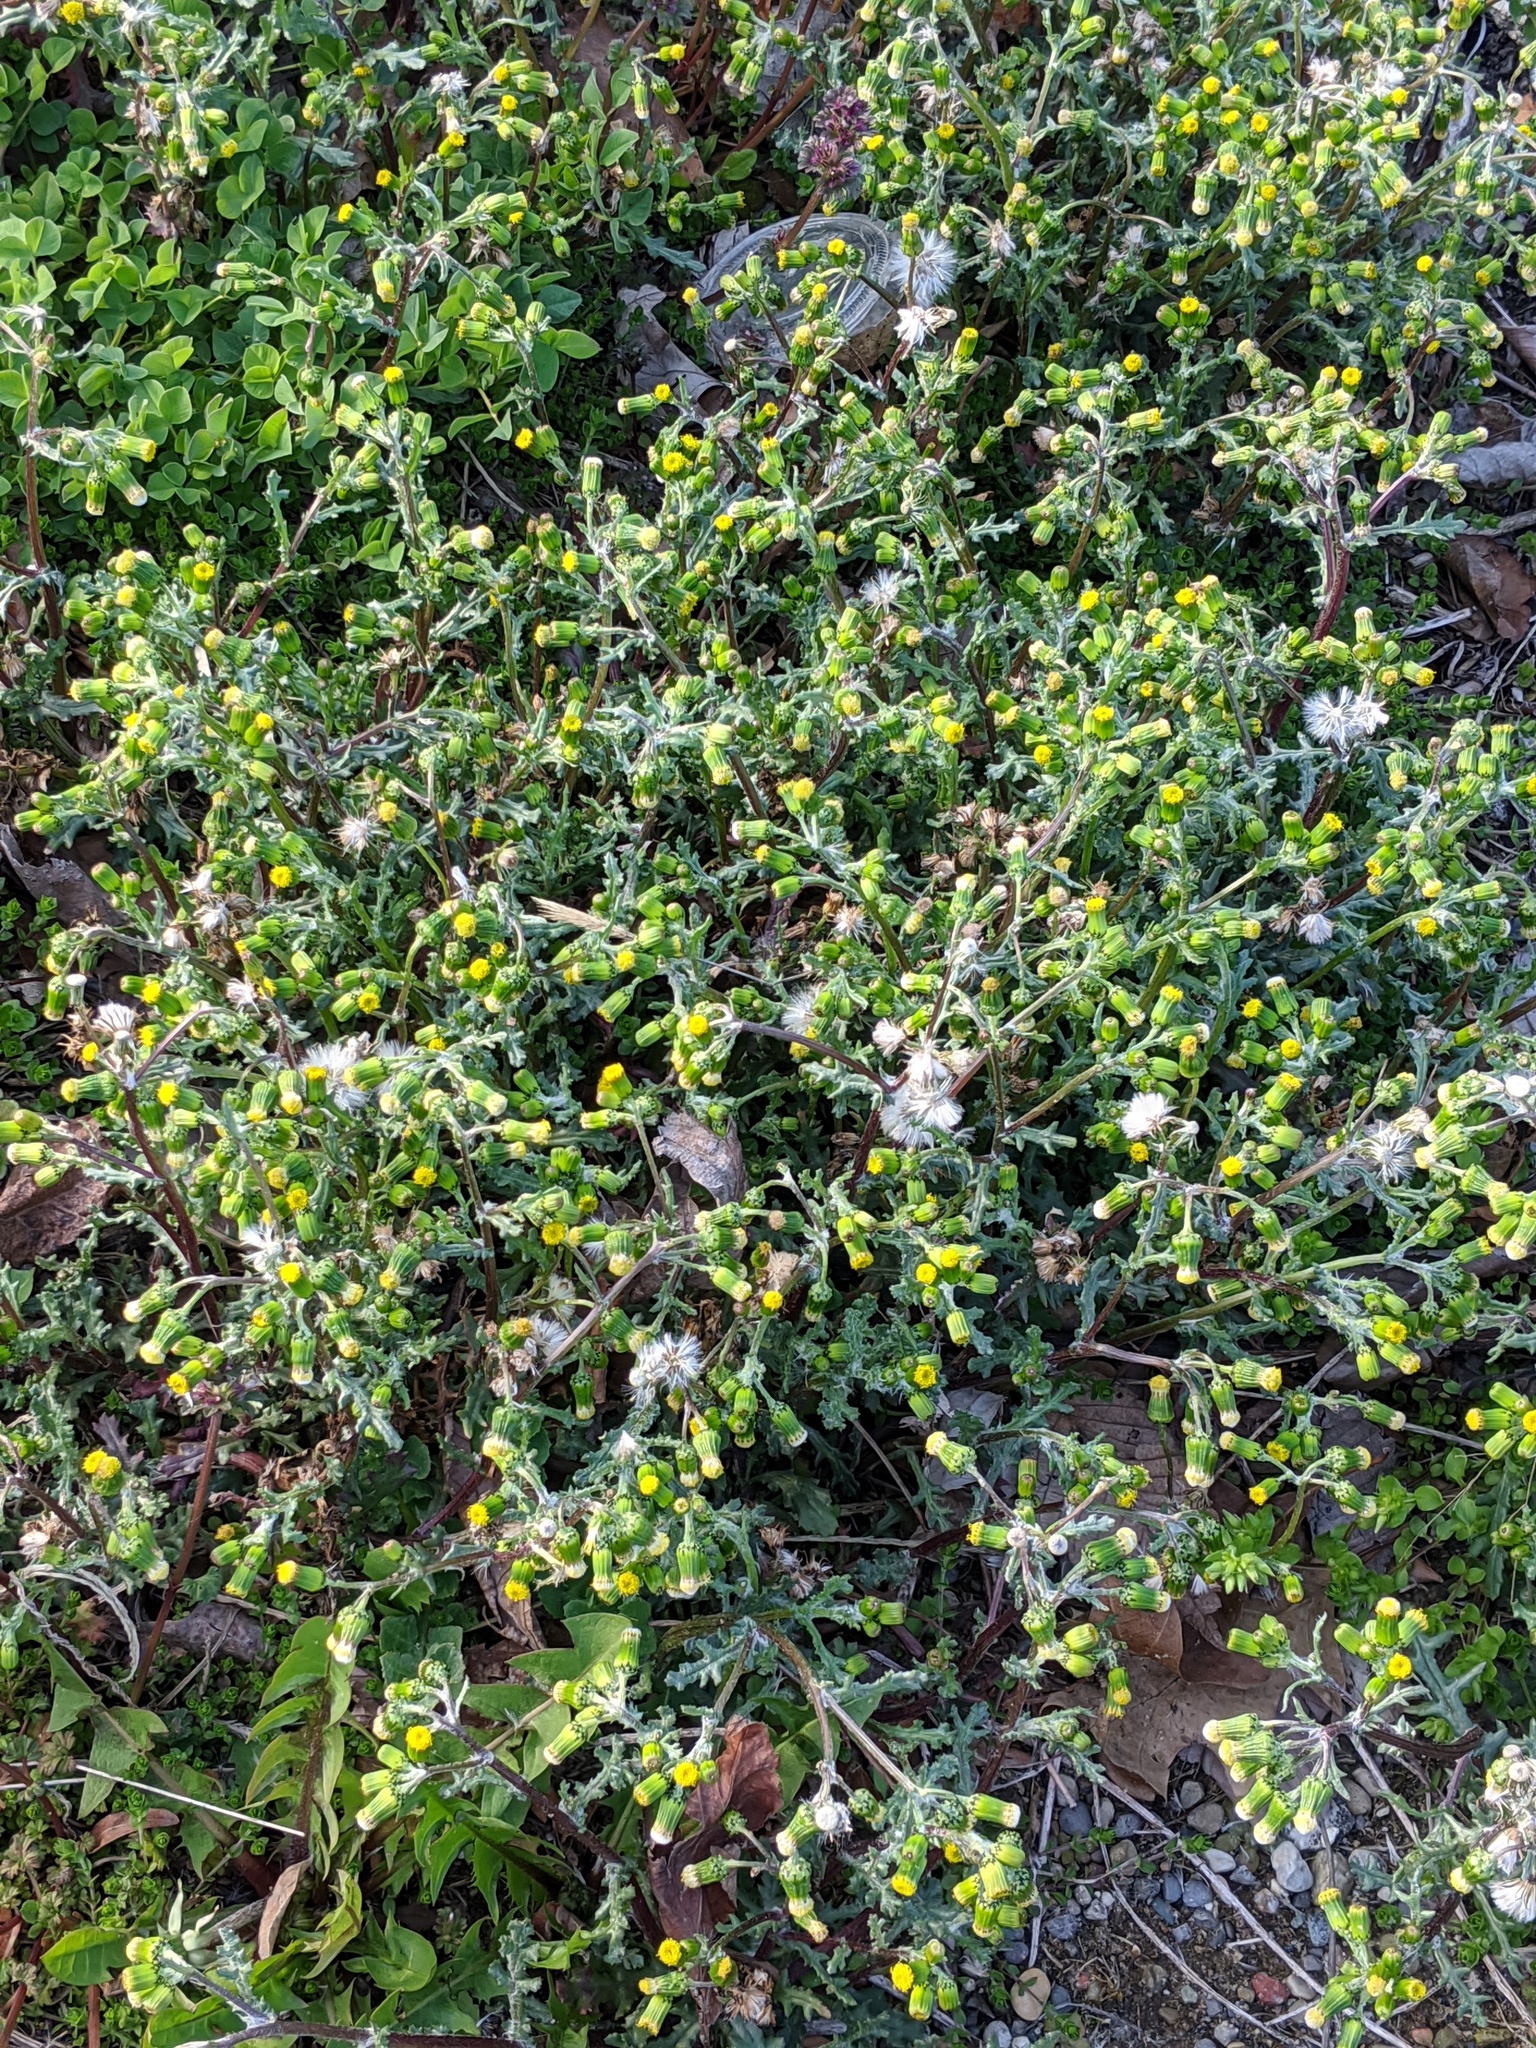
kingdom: Plantae
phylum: Tracheophyta
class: Magnoliopsida
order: Asterales
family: Asteraceae
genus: Senecio
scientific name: Senecio vulgaris
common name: Old-man-in-the-spring
